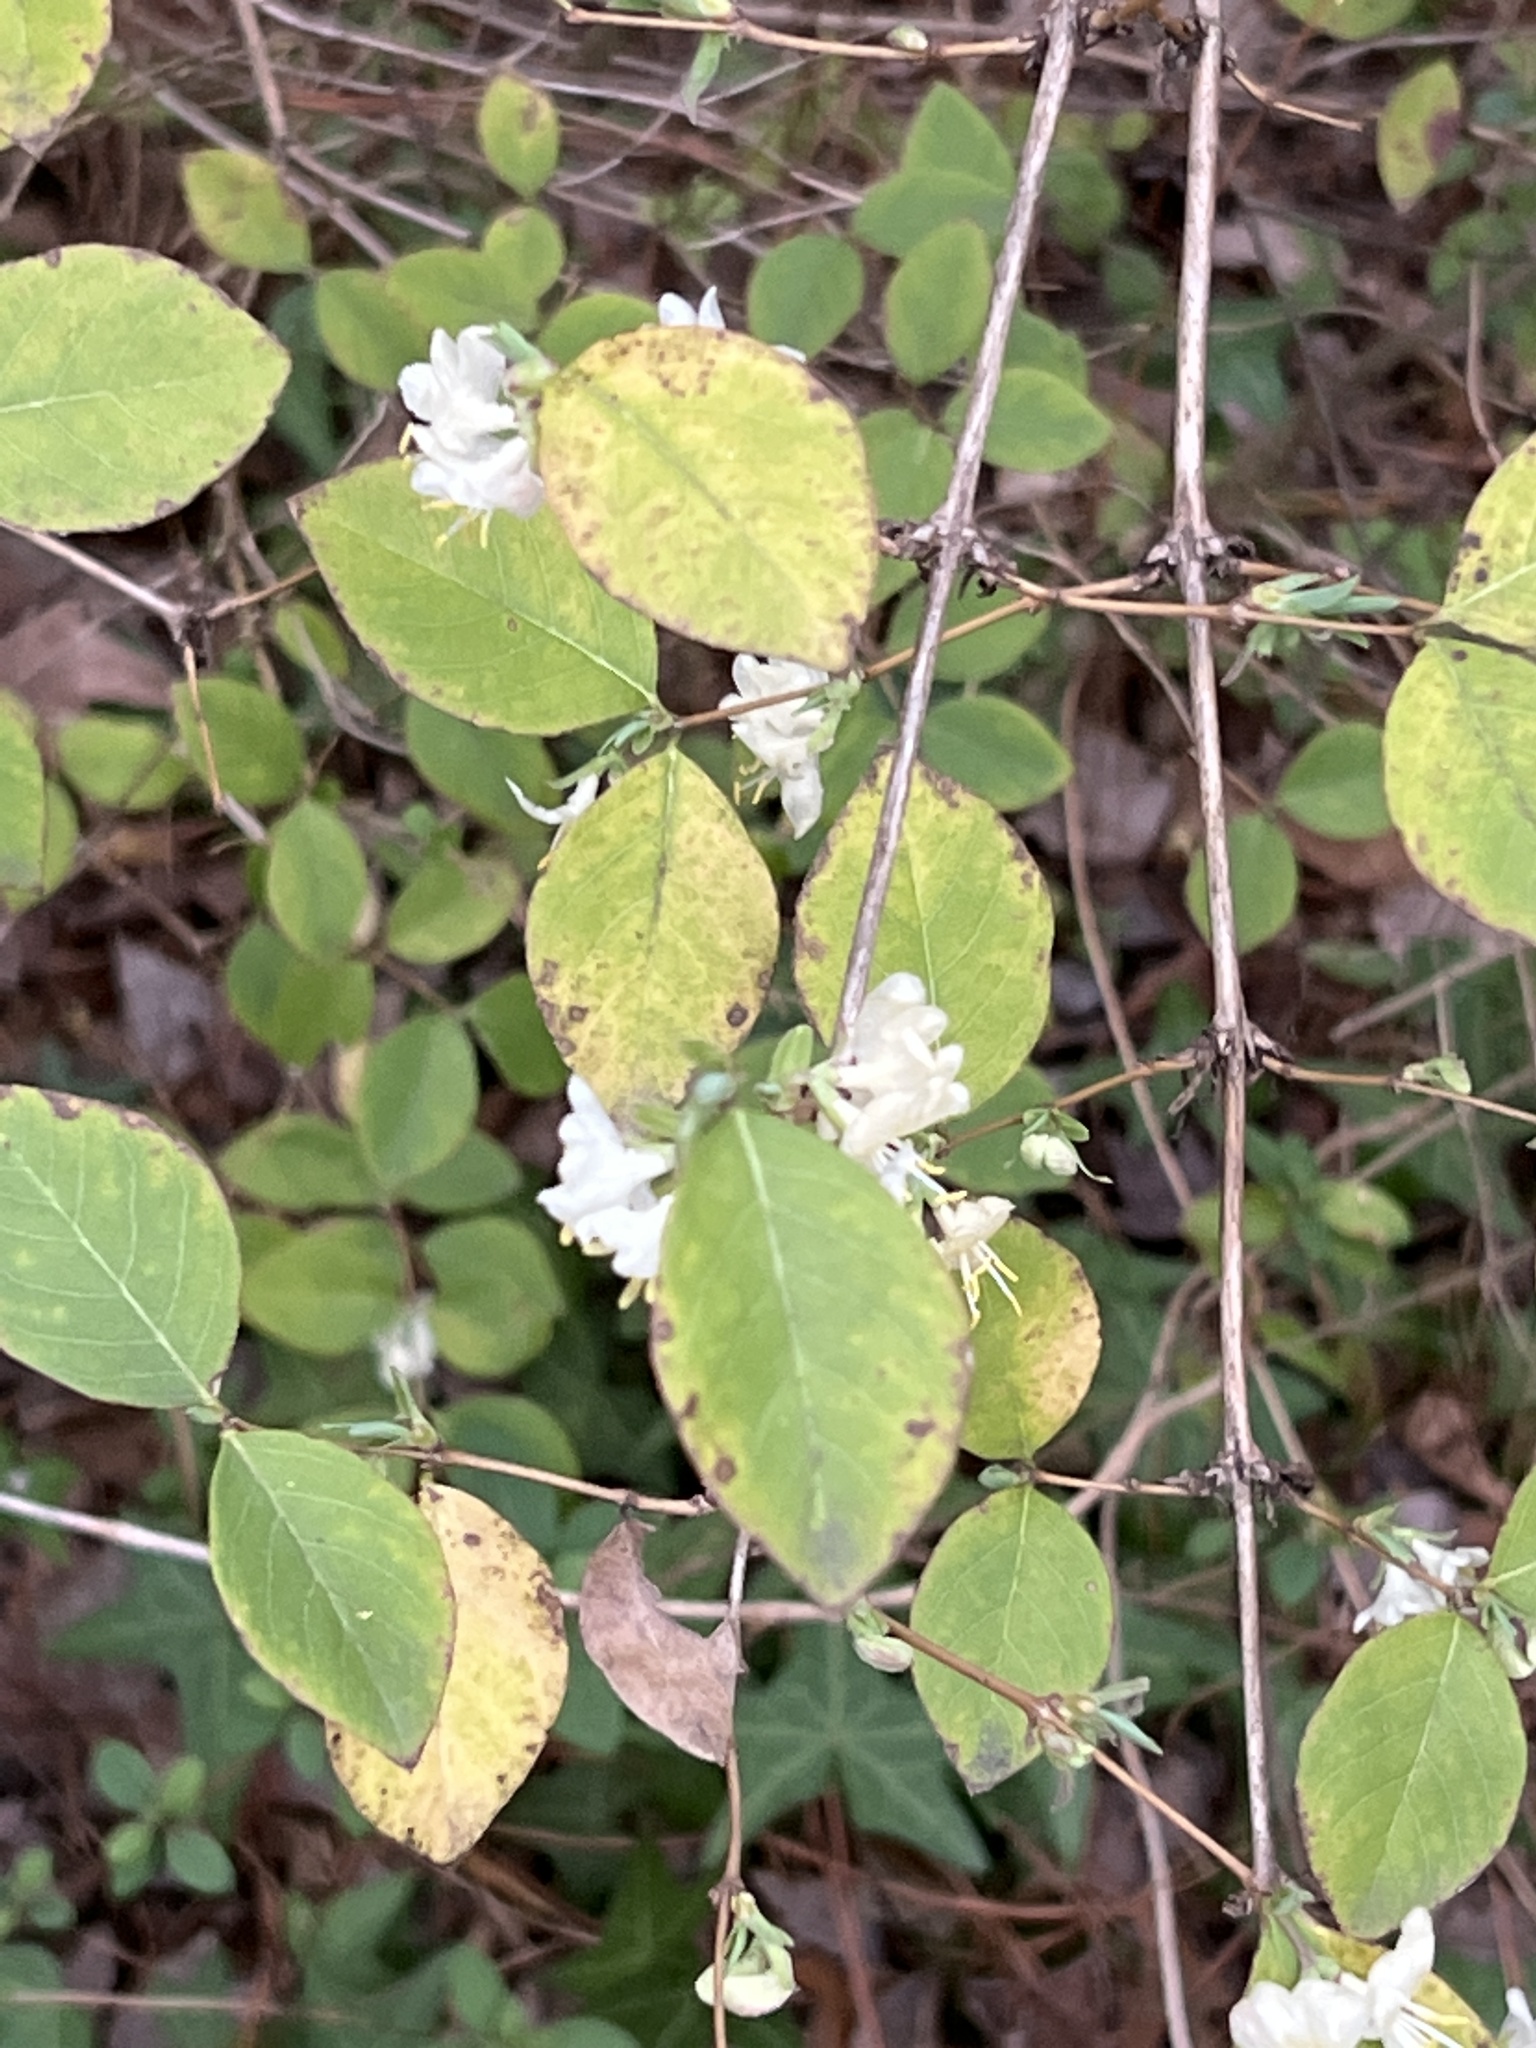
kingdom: Plantae
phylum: Tracheophyta
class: Magnoliopsida
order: Dipsacales
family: Caprifoliaceae
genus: Lonicera
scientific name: Lonicera fragrantissima
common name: Fragrant honeysuckle
